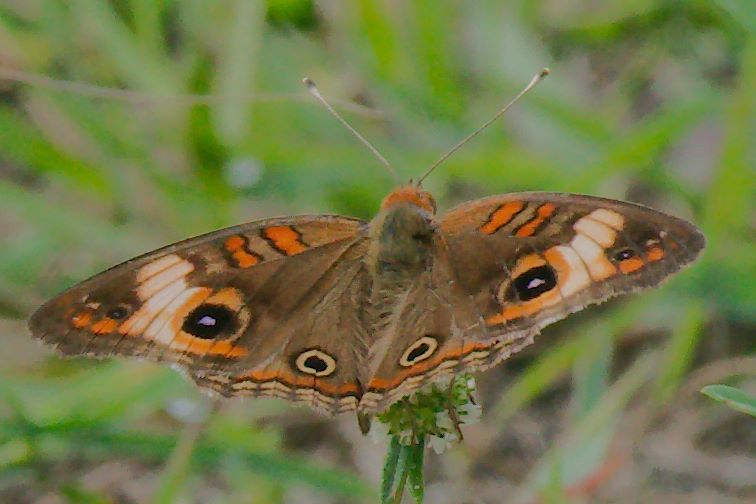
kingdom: Animalia
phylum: Arthropoda
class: Insecta
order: Lepidoptera
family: Nymphalidae
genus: Junonia
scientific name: Junonia lavinia
